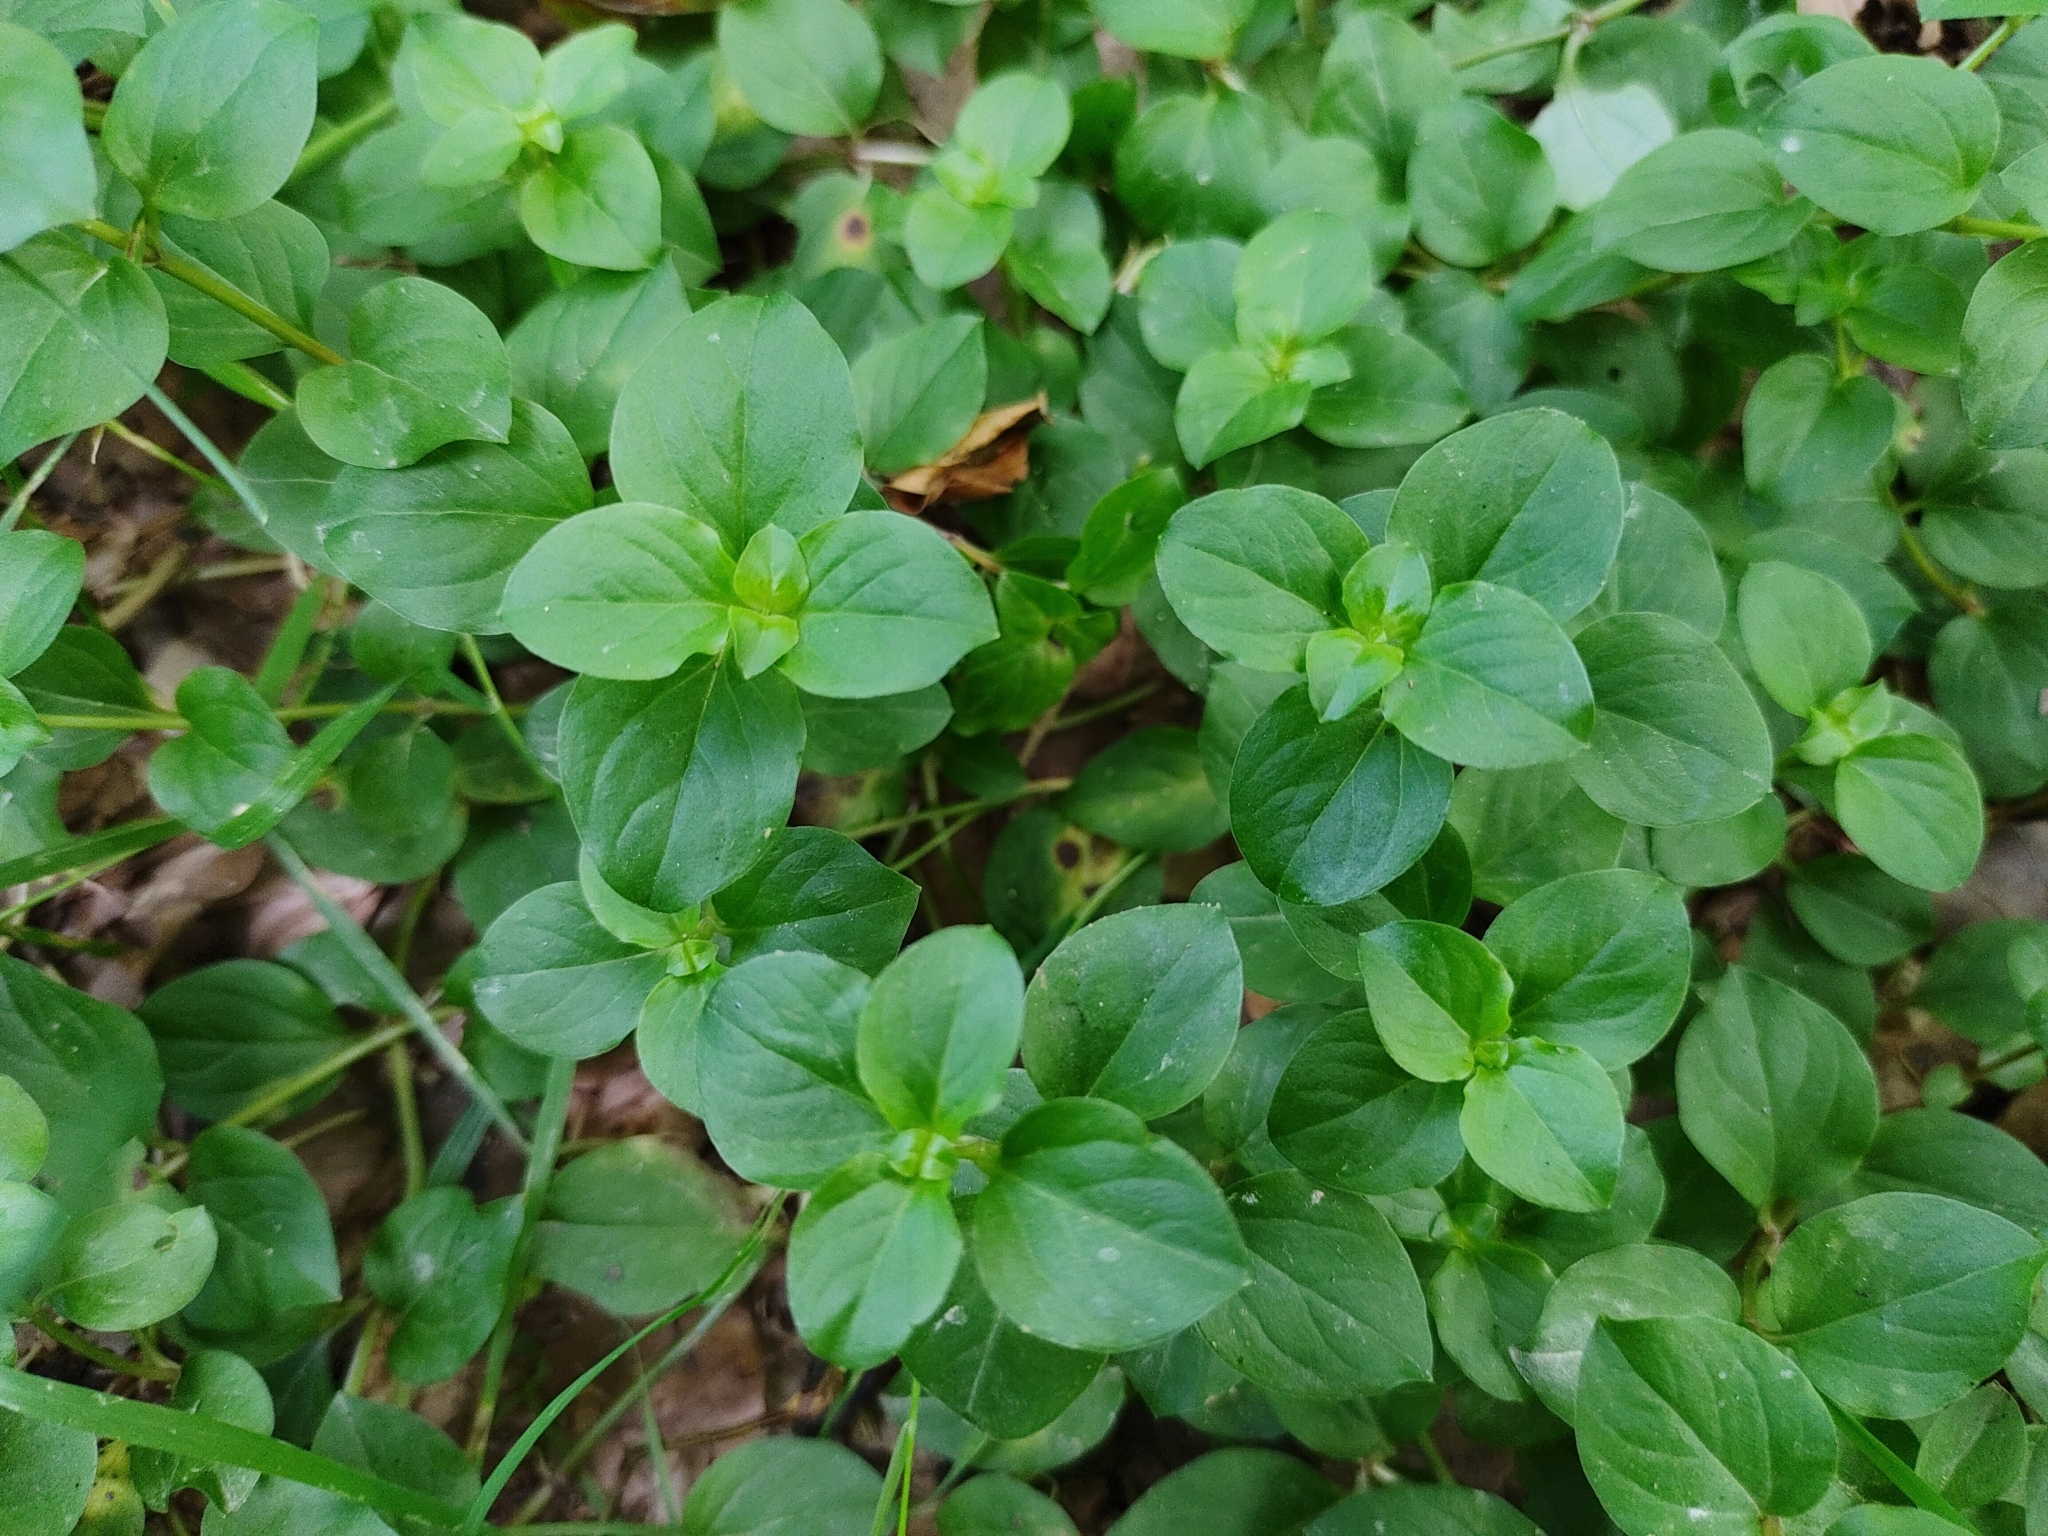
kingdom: Plantae
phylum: Tracheophyta
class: Magnoliopsida
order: Ericales
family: Primulaceae
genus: Lysimachia
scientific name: Lysimachia nemorum
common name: Yellow pimpernel
